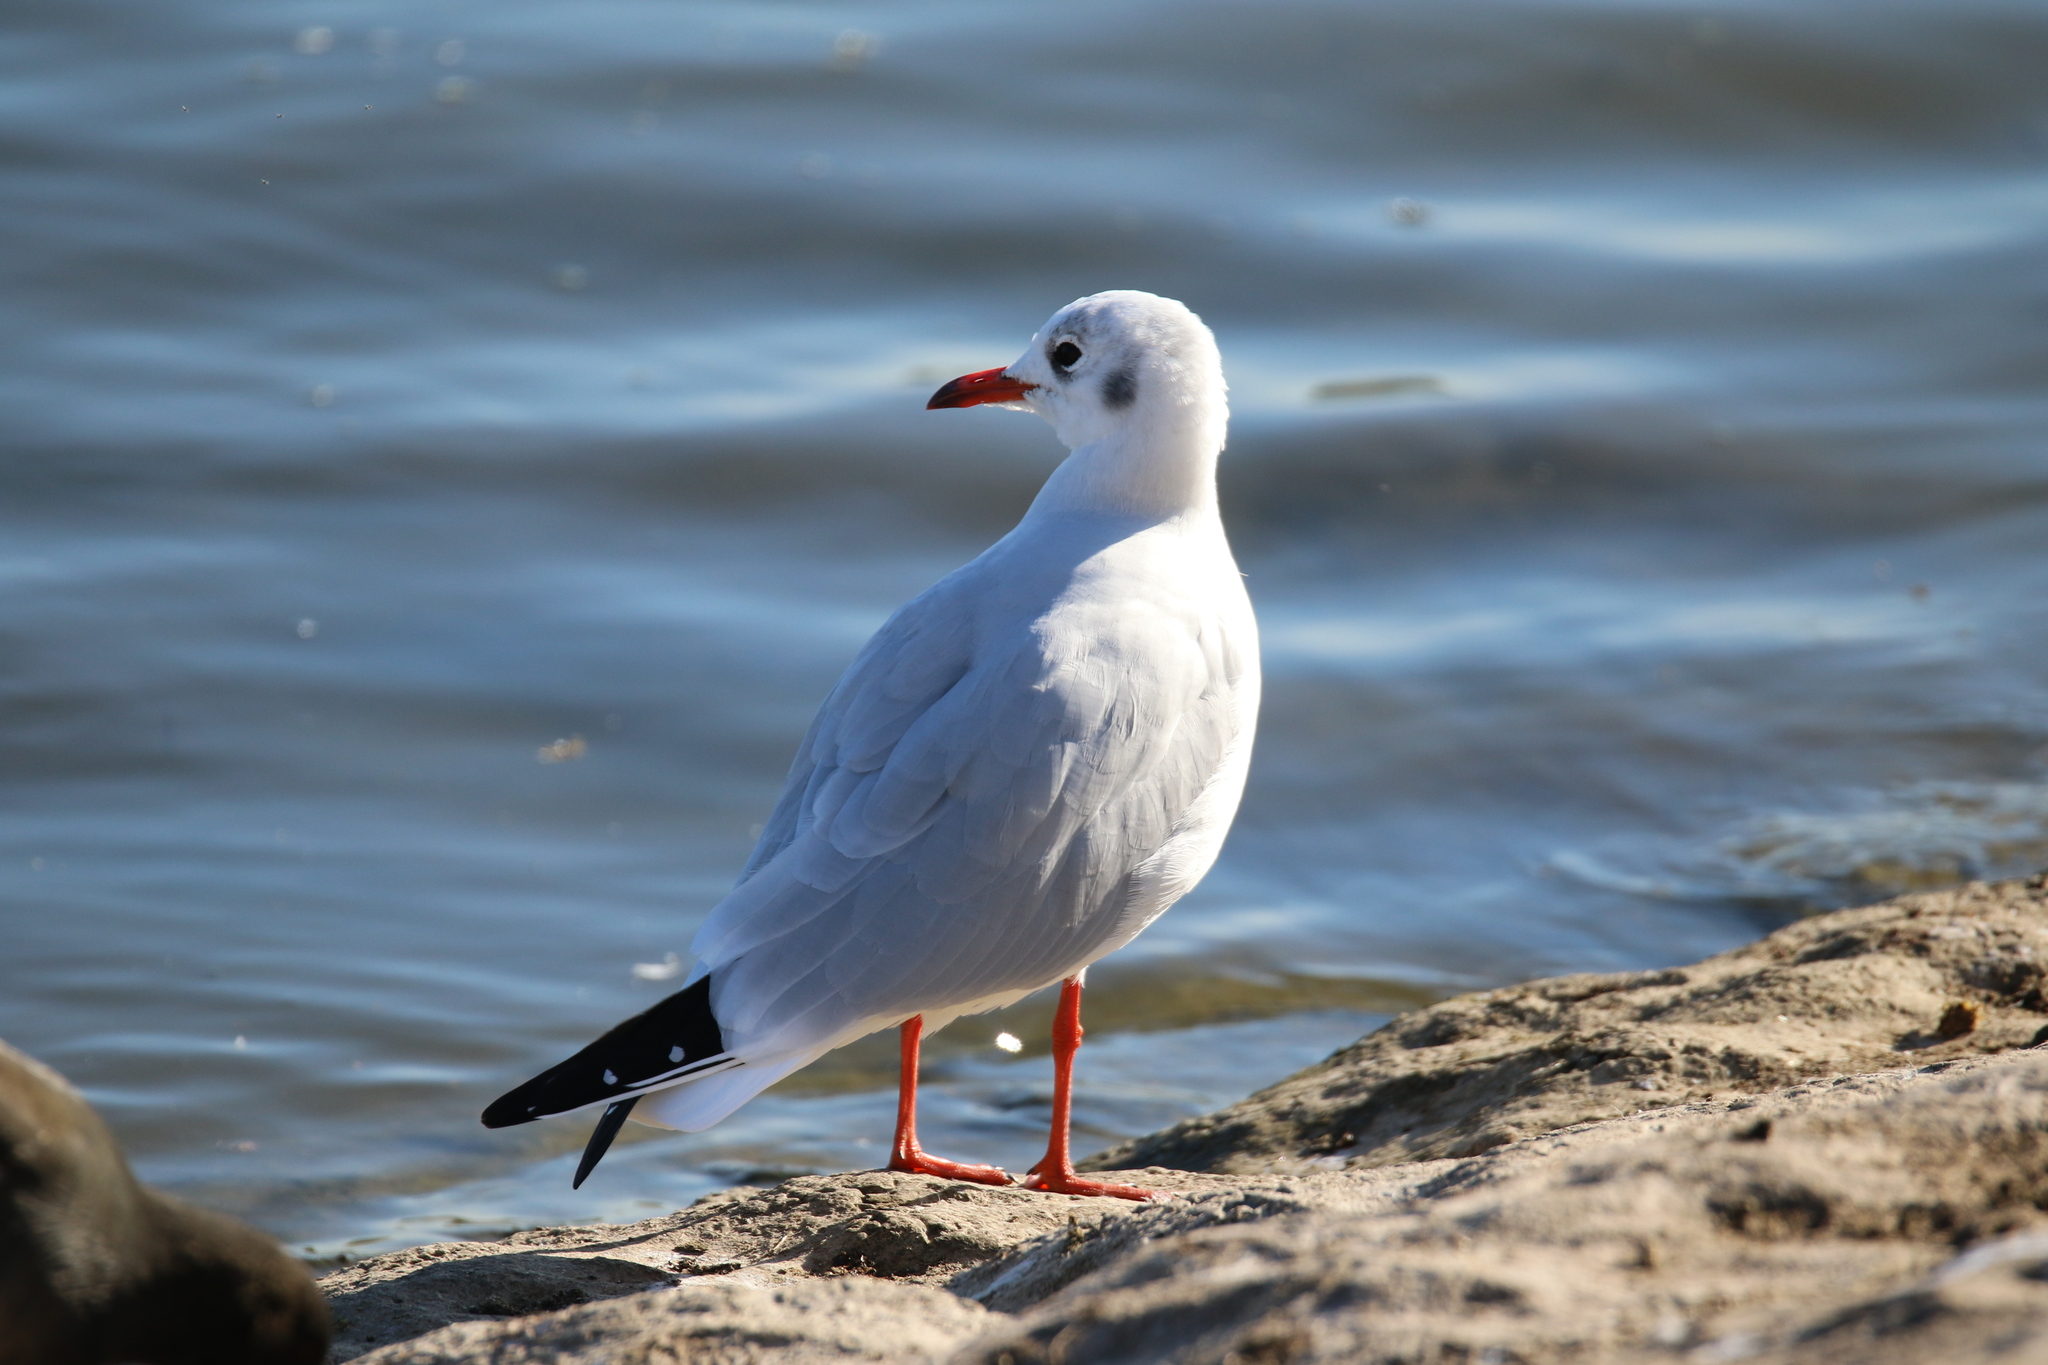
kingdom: Animalia
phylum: Chordata
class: Aves
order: Charadriiformes
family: Laridae
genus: Chroicocephalus
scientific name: Chroicocephalus ridibundus
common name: Black-headed gull
